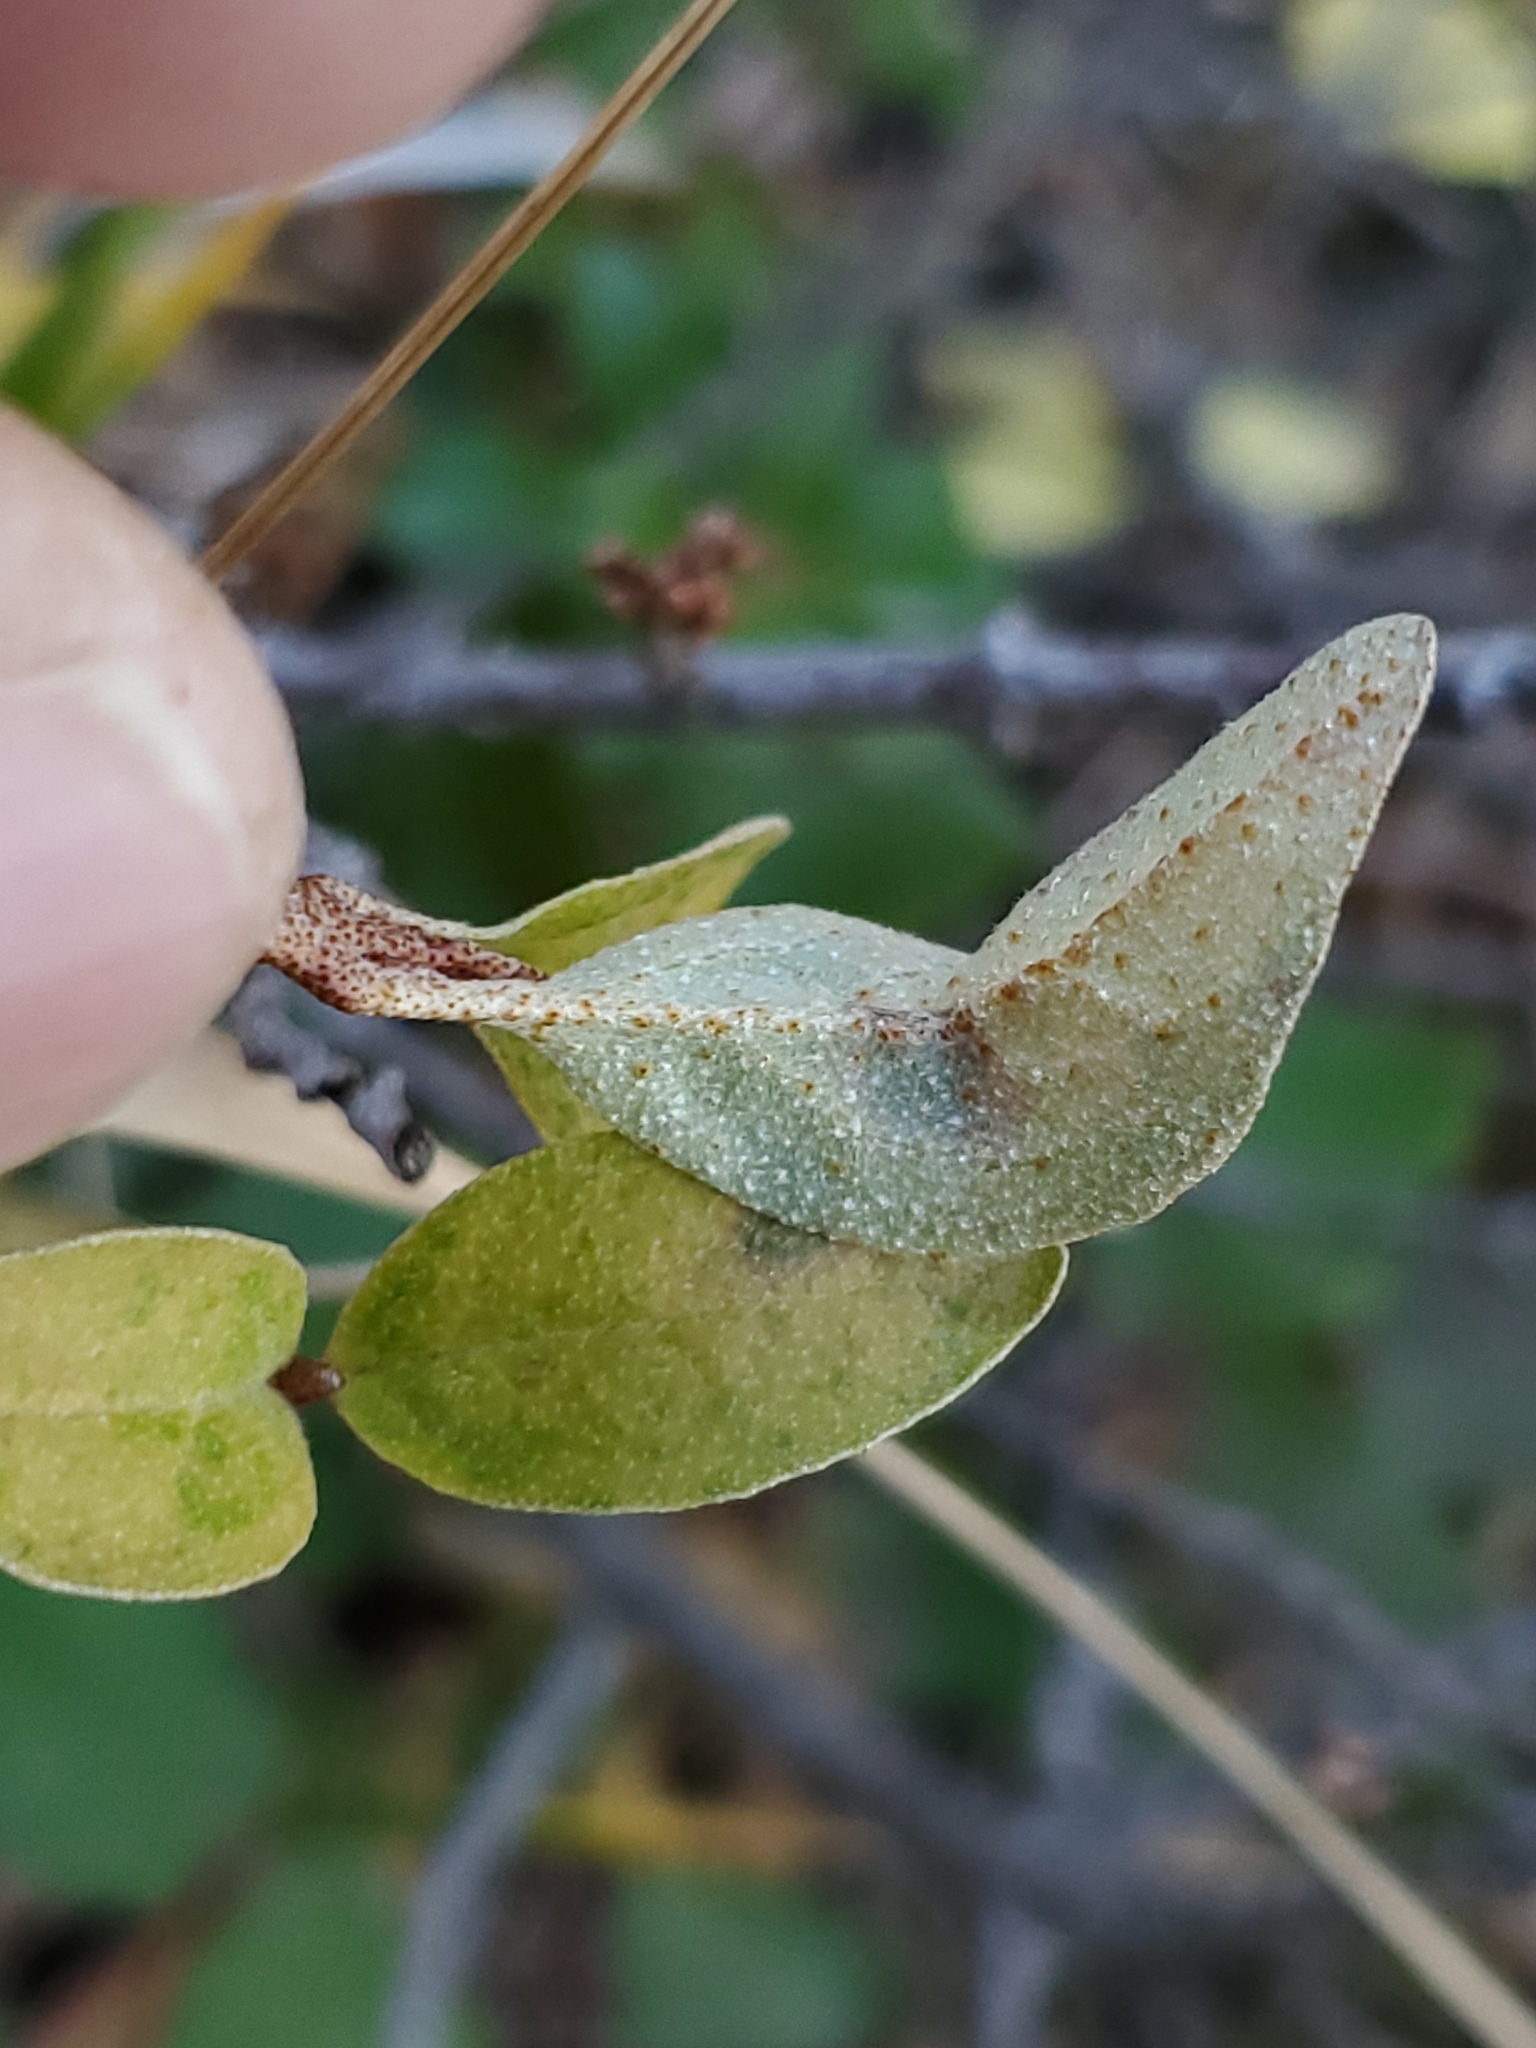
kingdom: Plantae
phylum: Tracheophyta
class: Magnoliopsida
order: Rosales
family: Elaeagnaceae
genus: Shepherdia
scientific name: Shepherdia canadensis
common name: Soapberry
